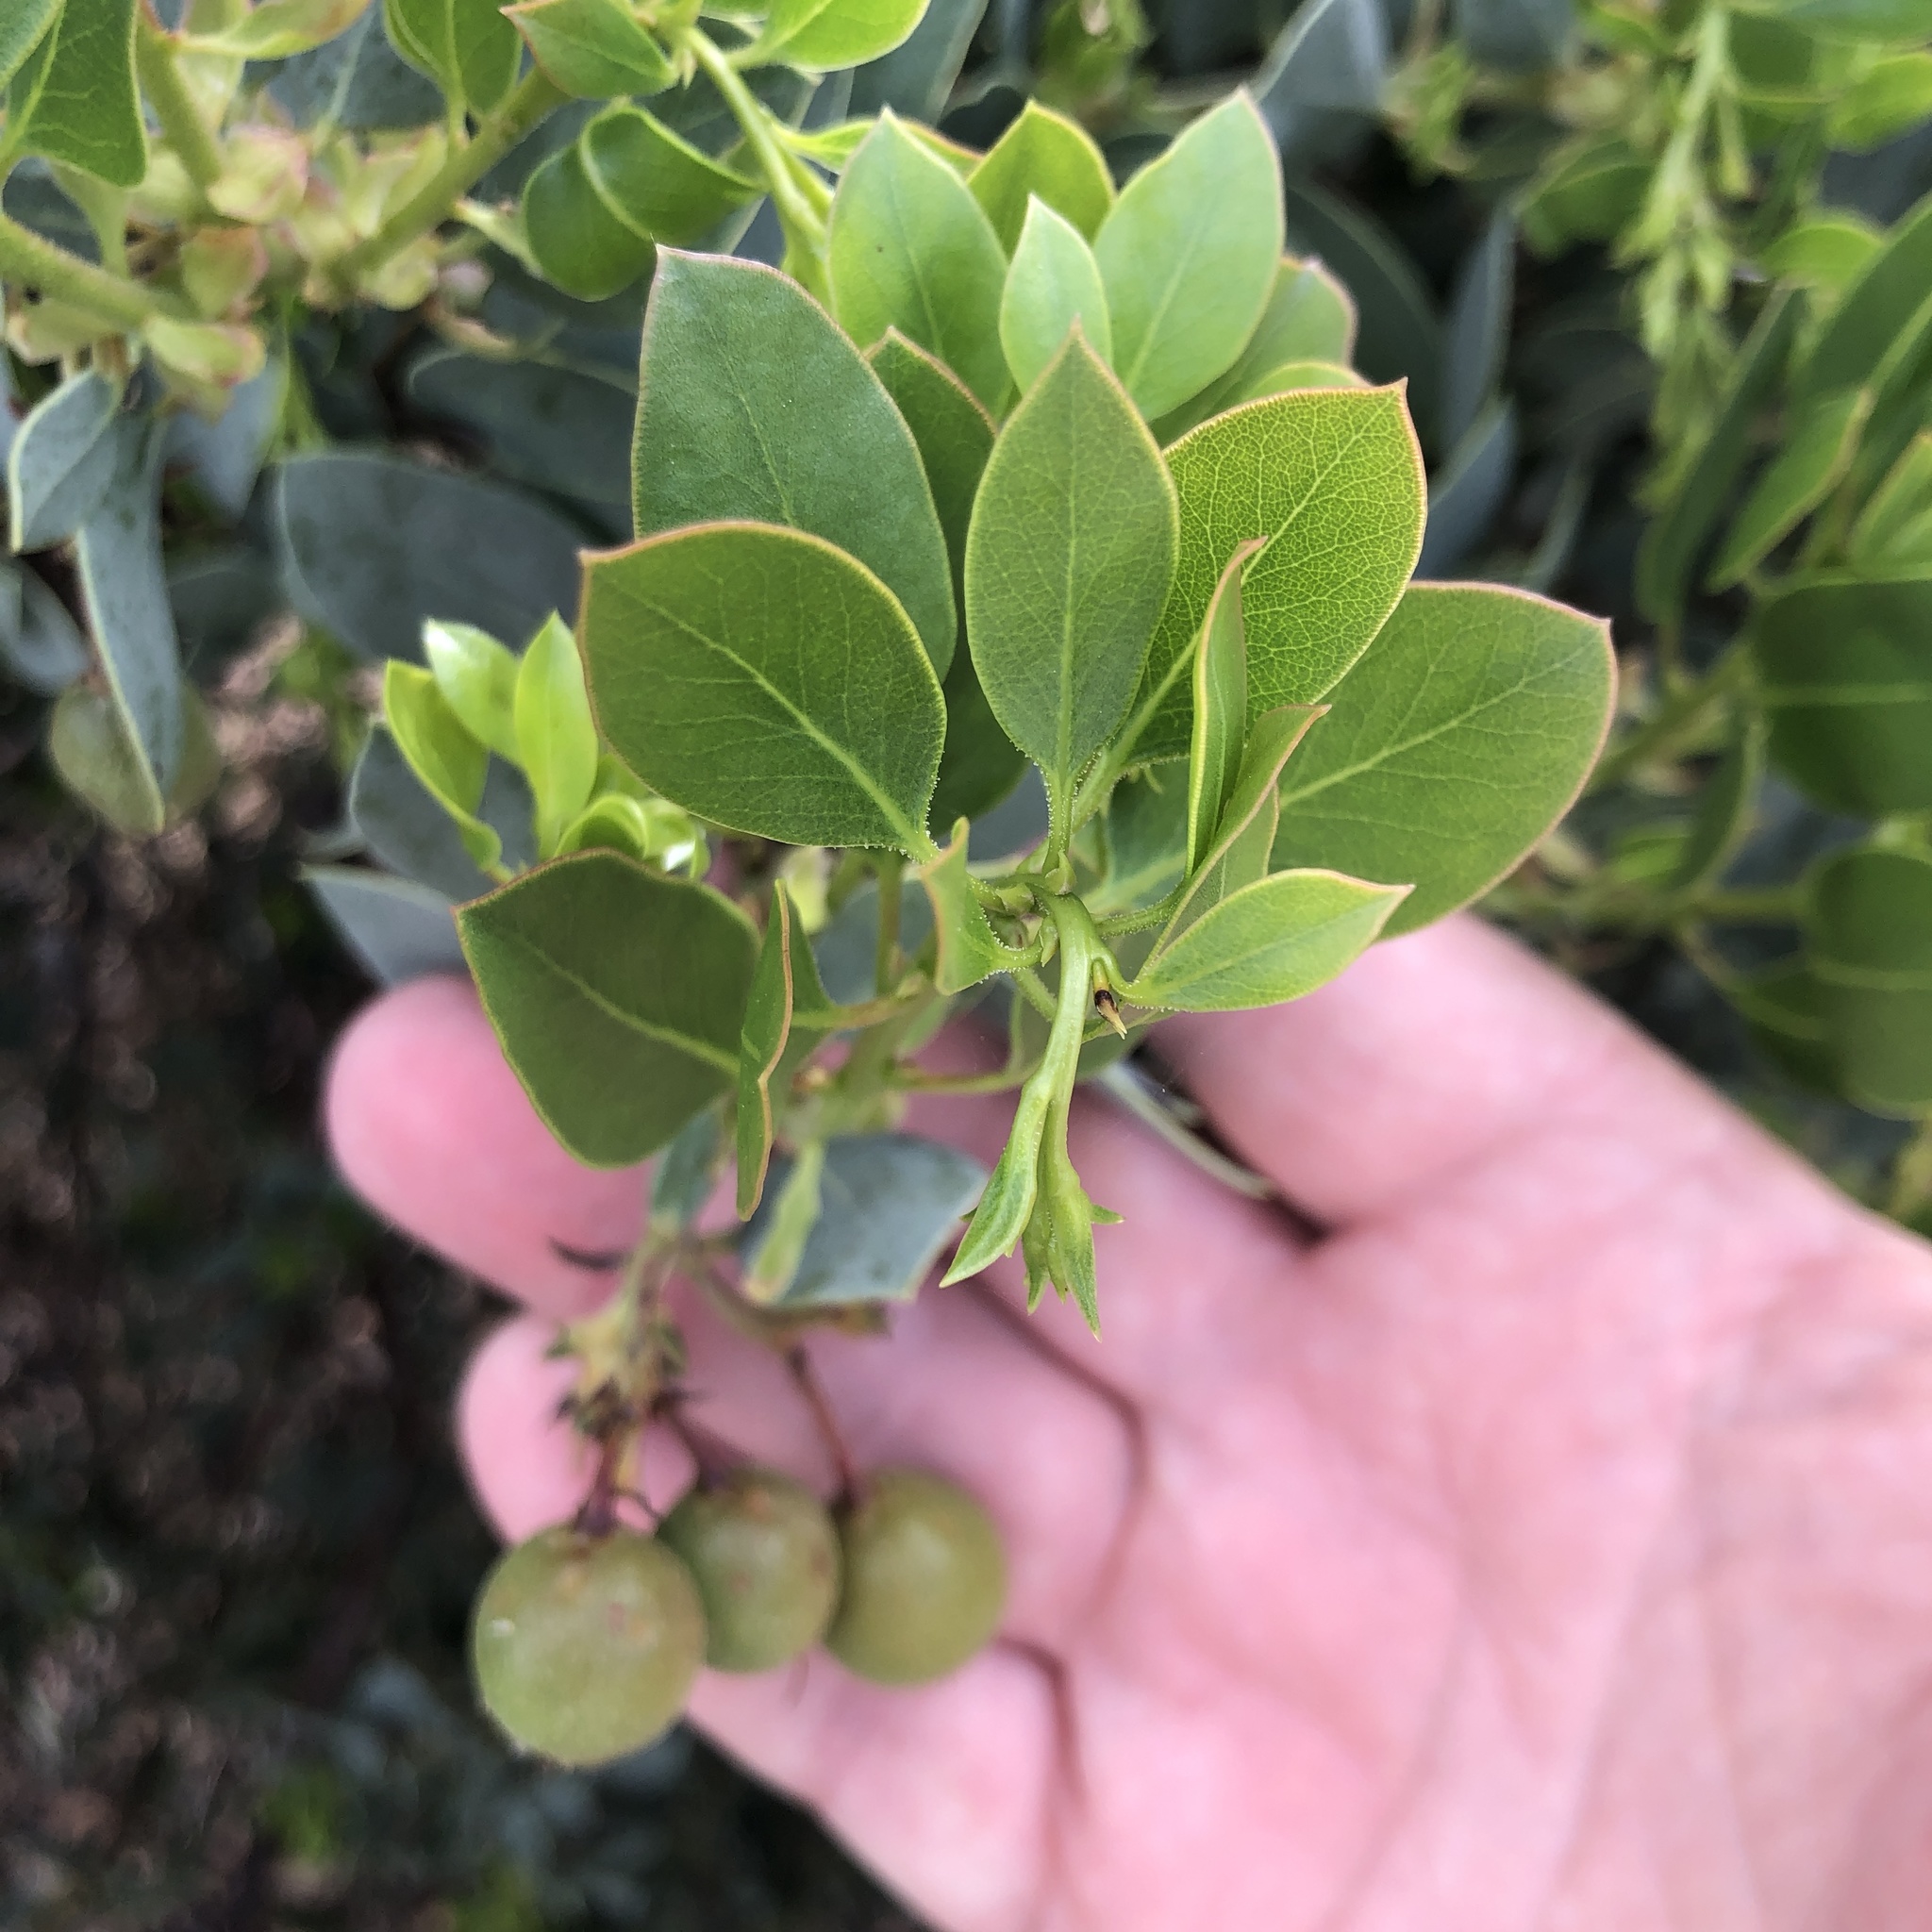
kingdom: Plantae
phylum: Tracheophyta
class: Magnoliopsida
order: Ericales
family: Ericaceae
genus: Arctostaphylos
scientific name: Arctostaphylos glauca
